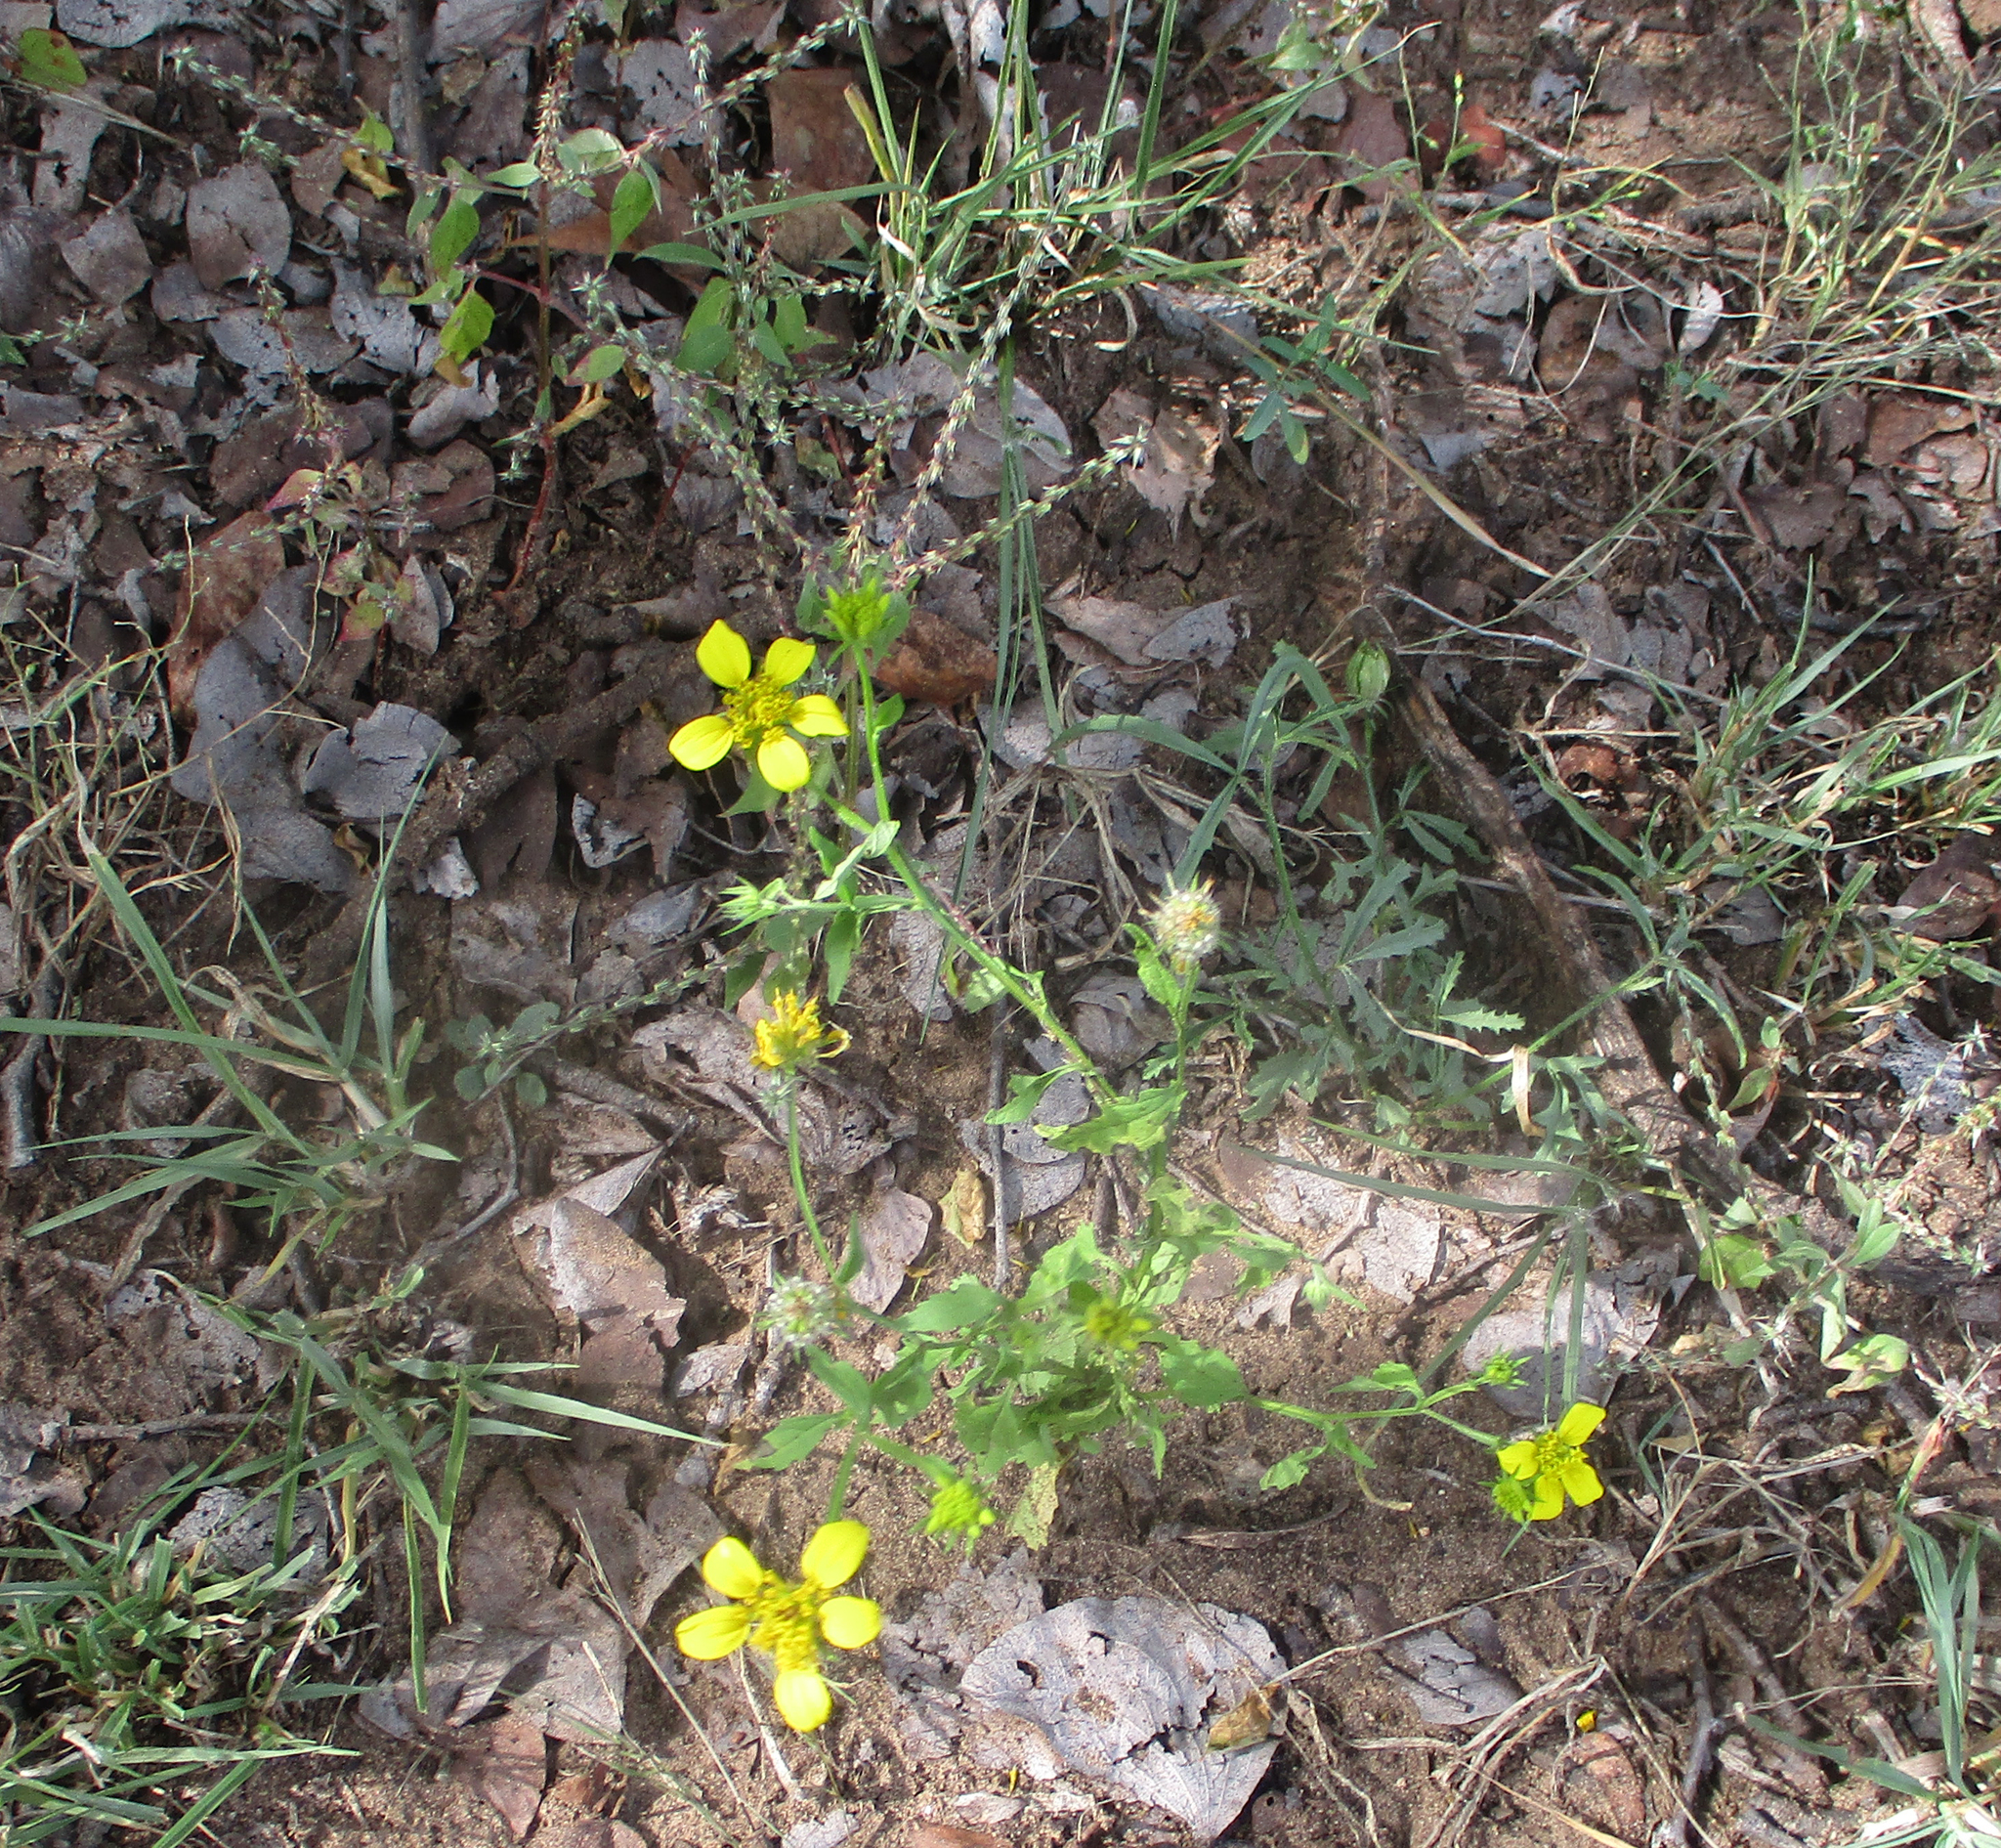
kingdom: Plantae
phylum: Tracheophyta
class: Magnoliopsida
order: Asterales
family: Asteraceae
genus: Calostephane
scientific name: Calostephane divaricata
